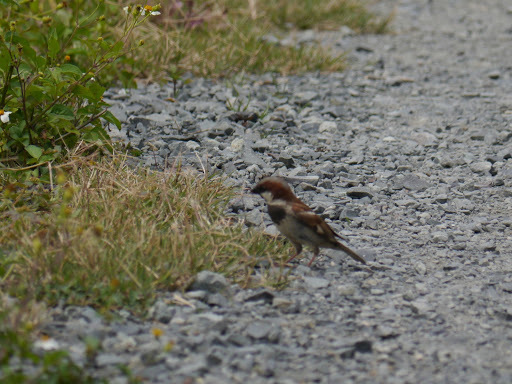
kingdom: Animalia
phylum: Chordata
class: Aves
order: Passeriformes
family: Passeridae
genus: Passer
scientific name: Passer domesticus
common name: House sparrow
